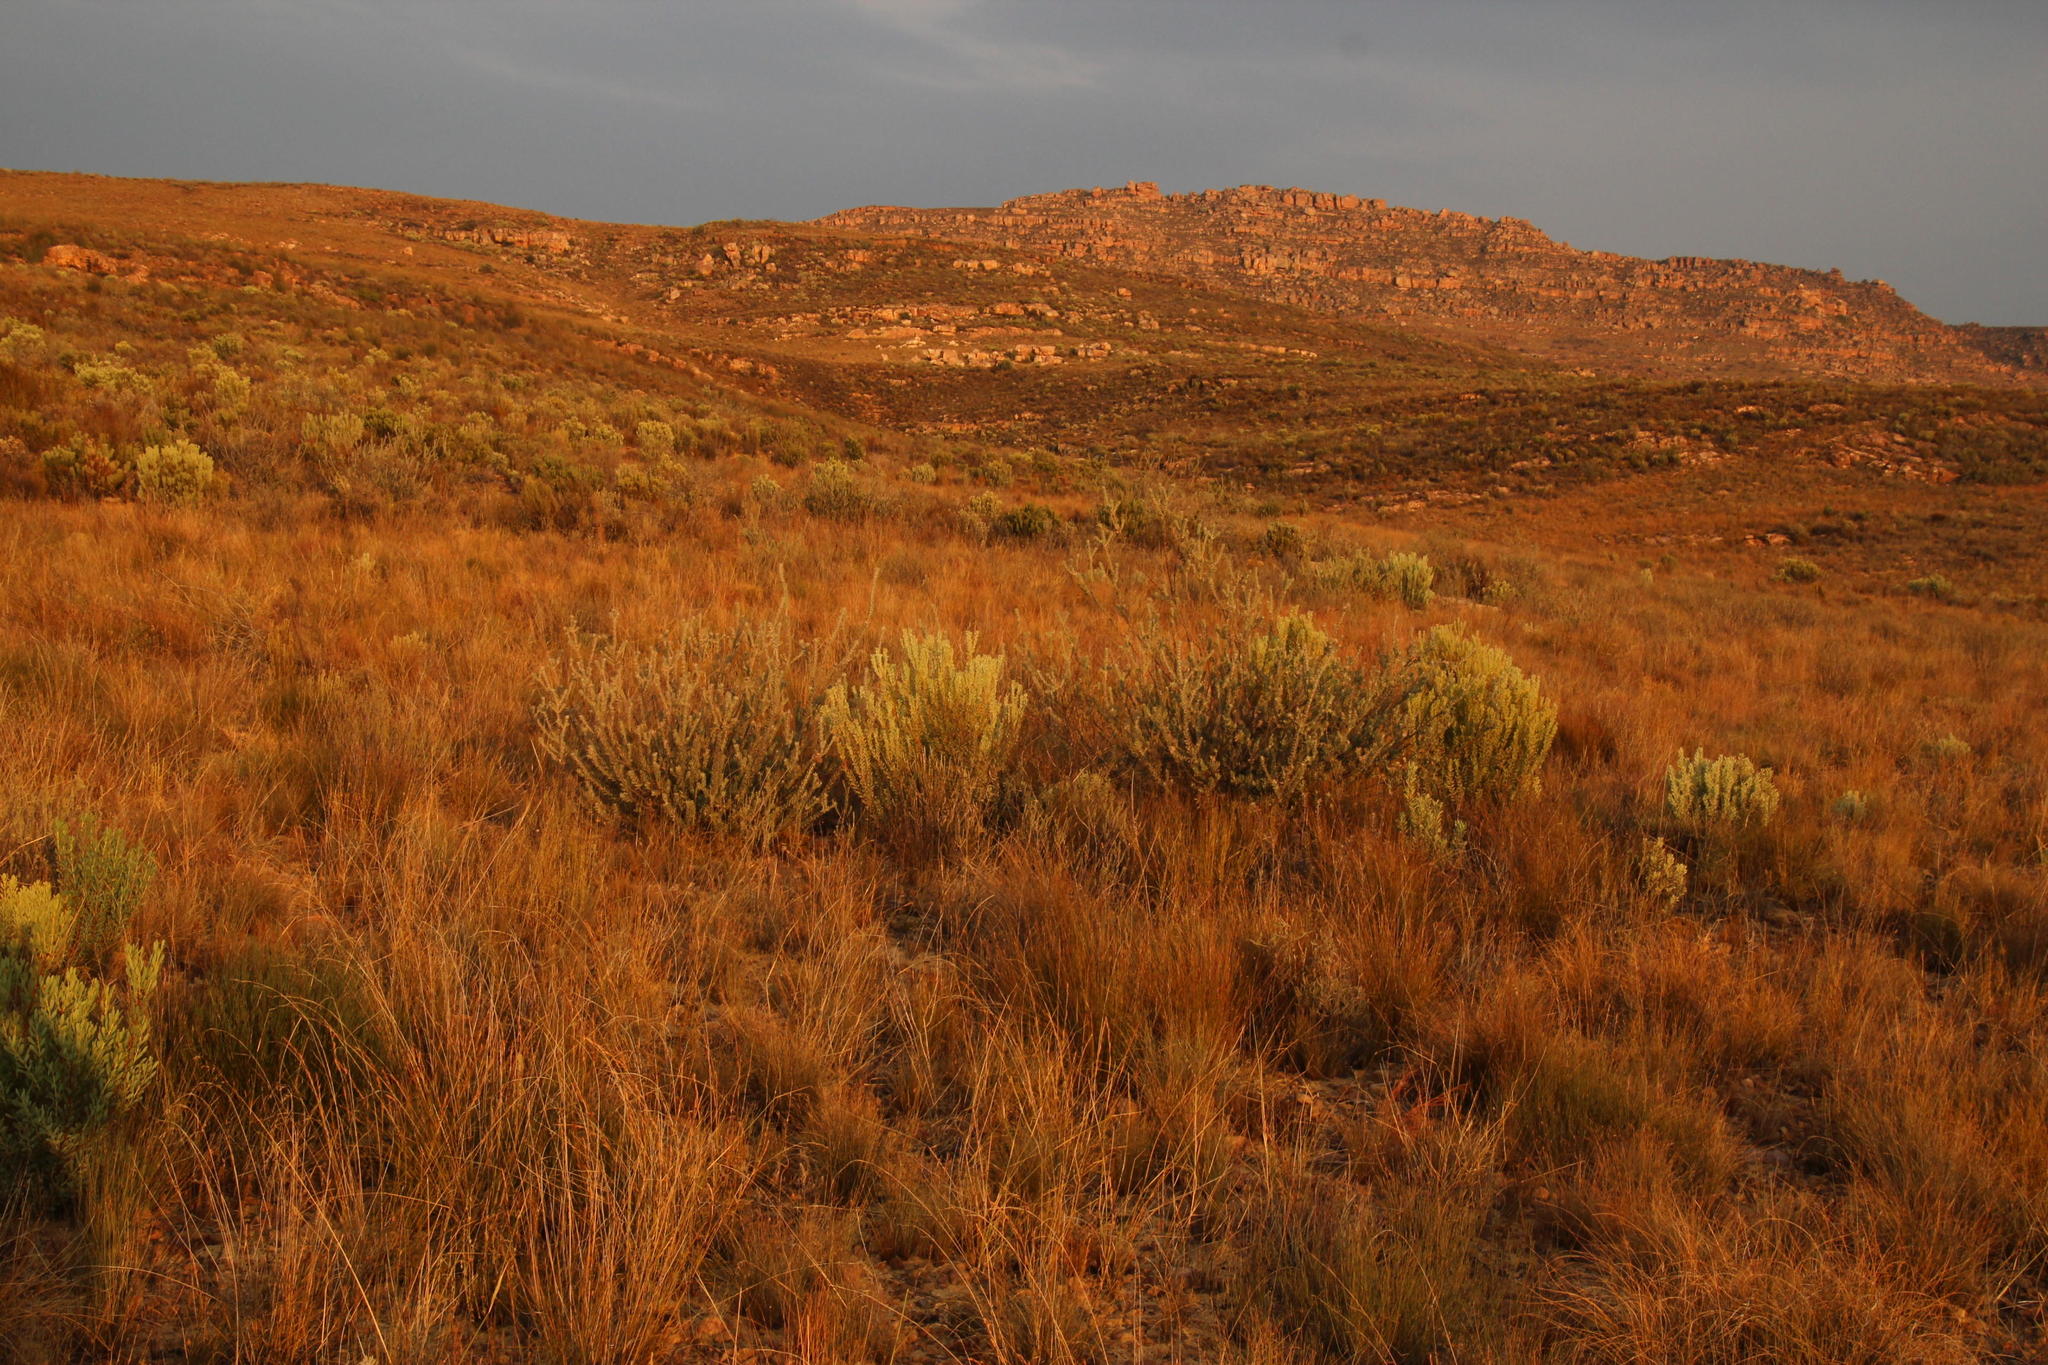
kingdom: Plantae
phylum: Tracheophyta
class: Magnoliopsida
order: Proteales
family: Proteaceae
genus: Leucospermum
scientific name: Leucospermum calligerum
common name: Arid pincushion
